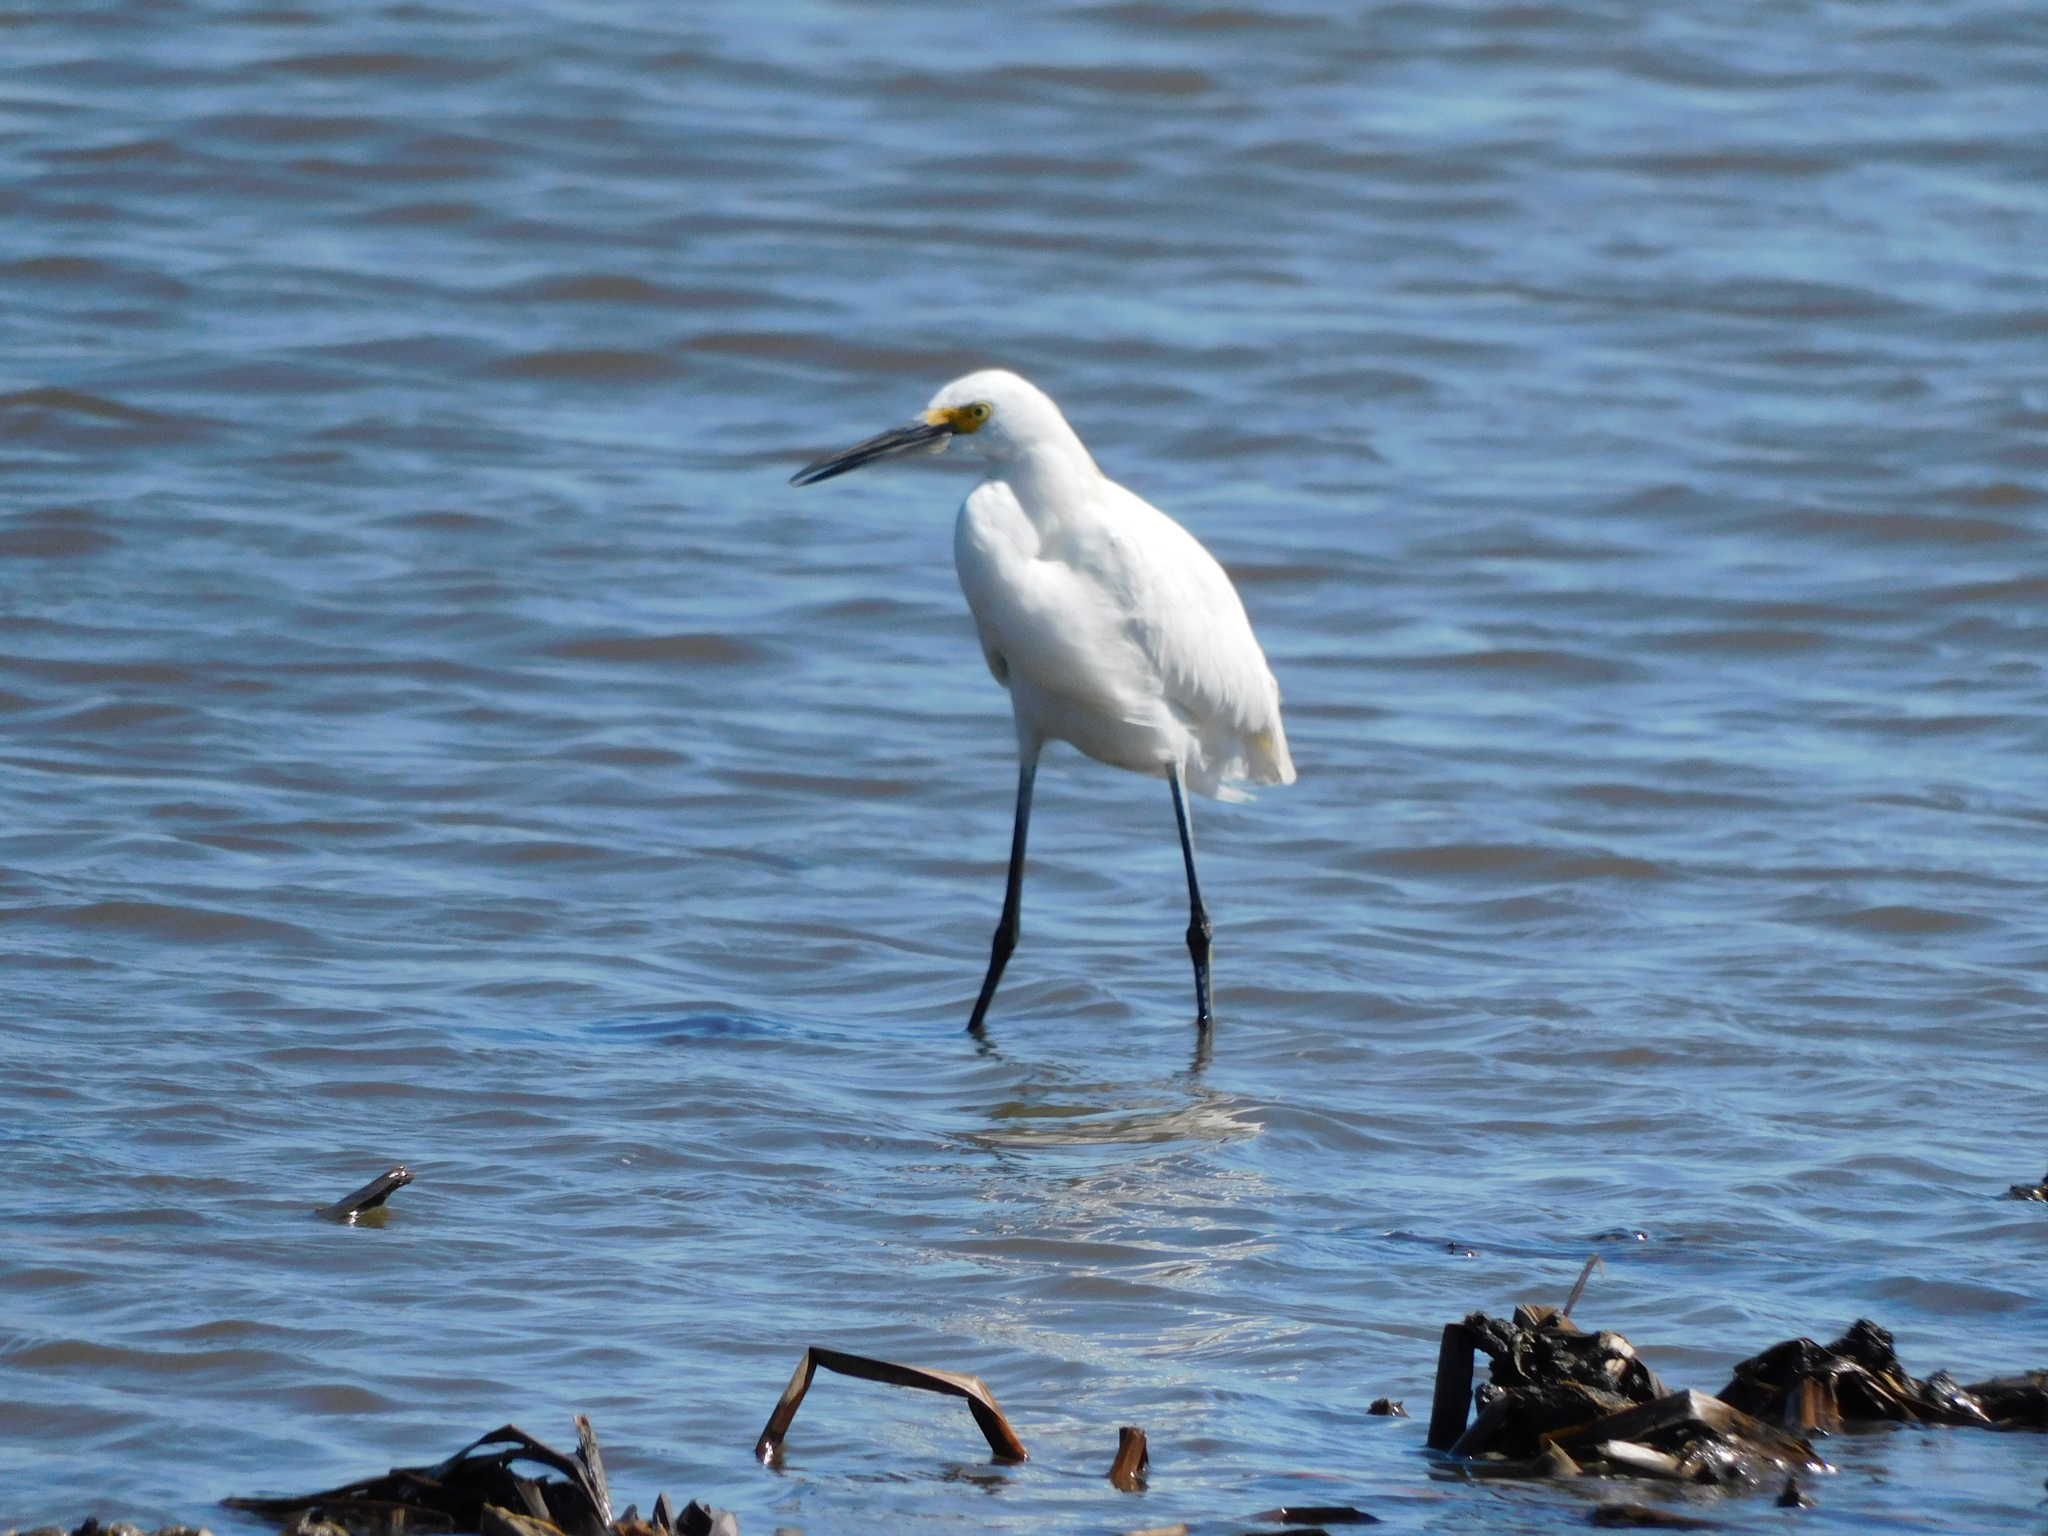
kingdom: Animalia
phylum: Chordata
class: Aves
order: Pelecaniformes
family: Ardeidae
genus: Egretta
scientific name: Egretta thula
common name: Snowy egret
